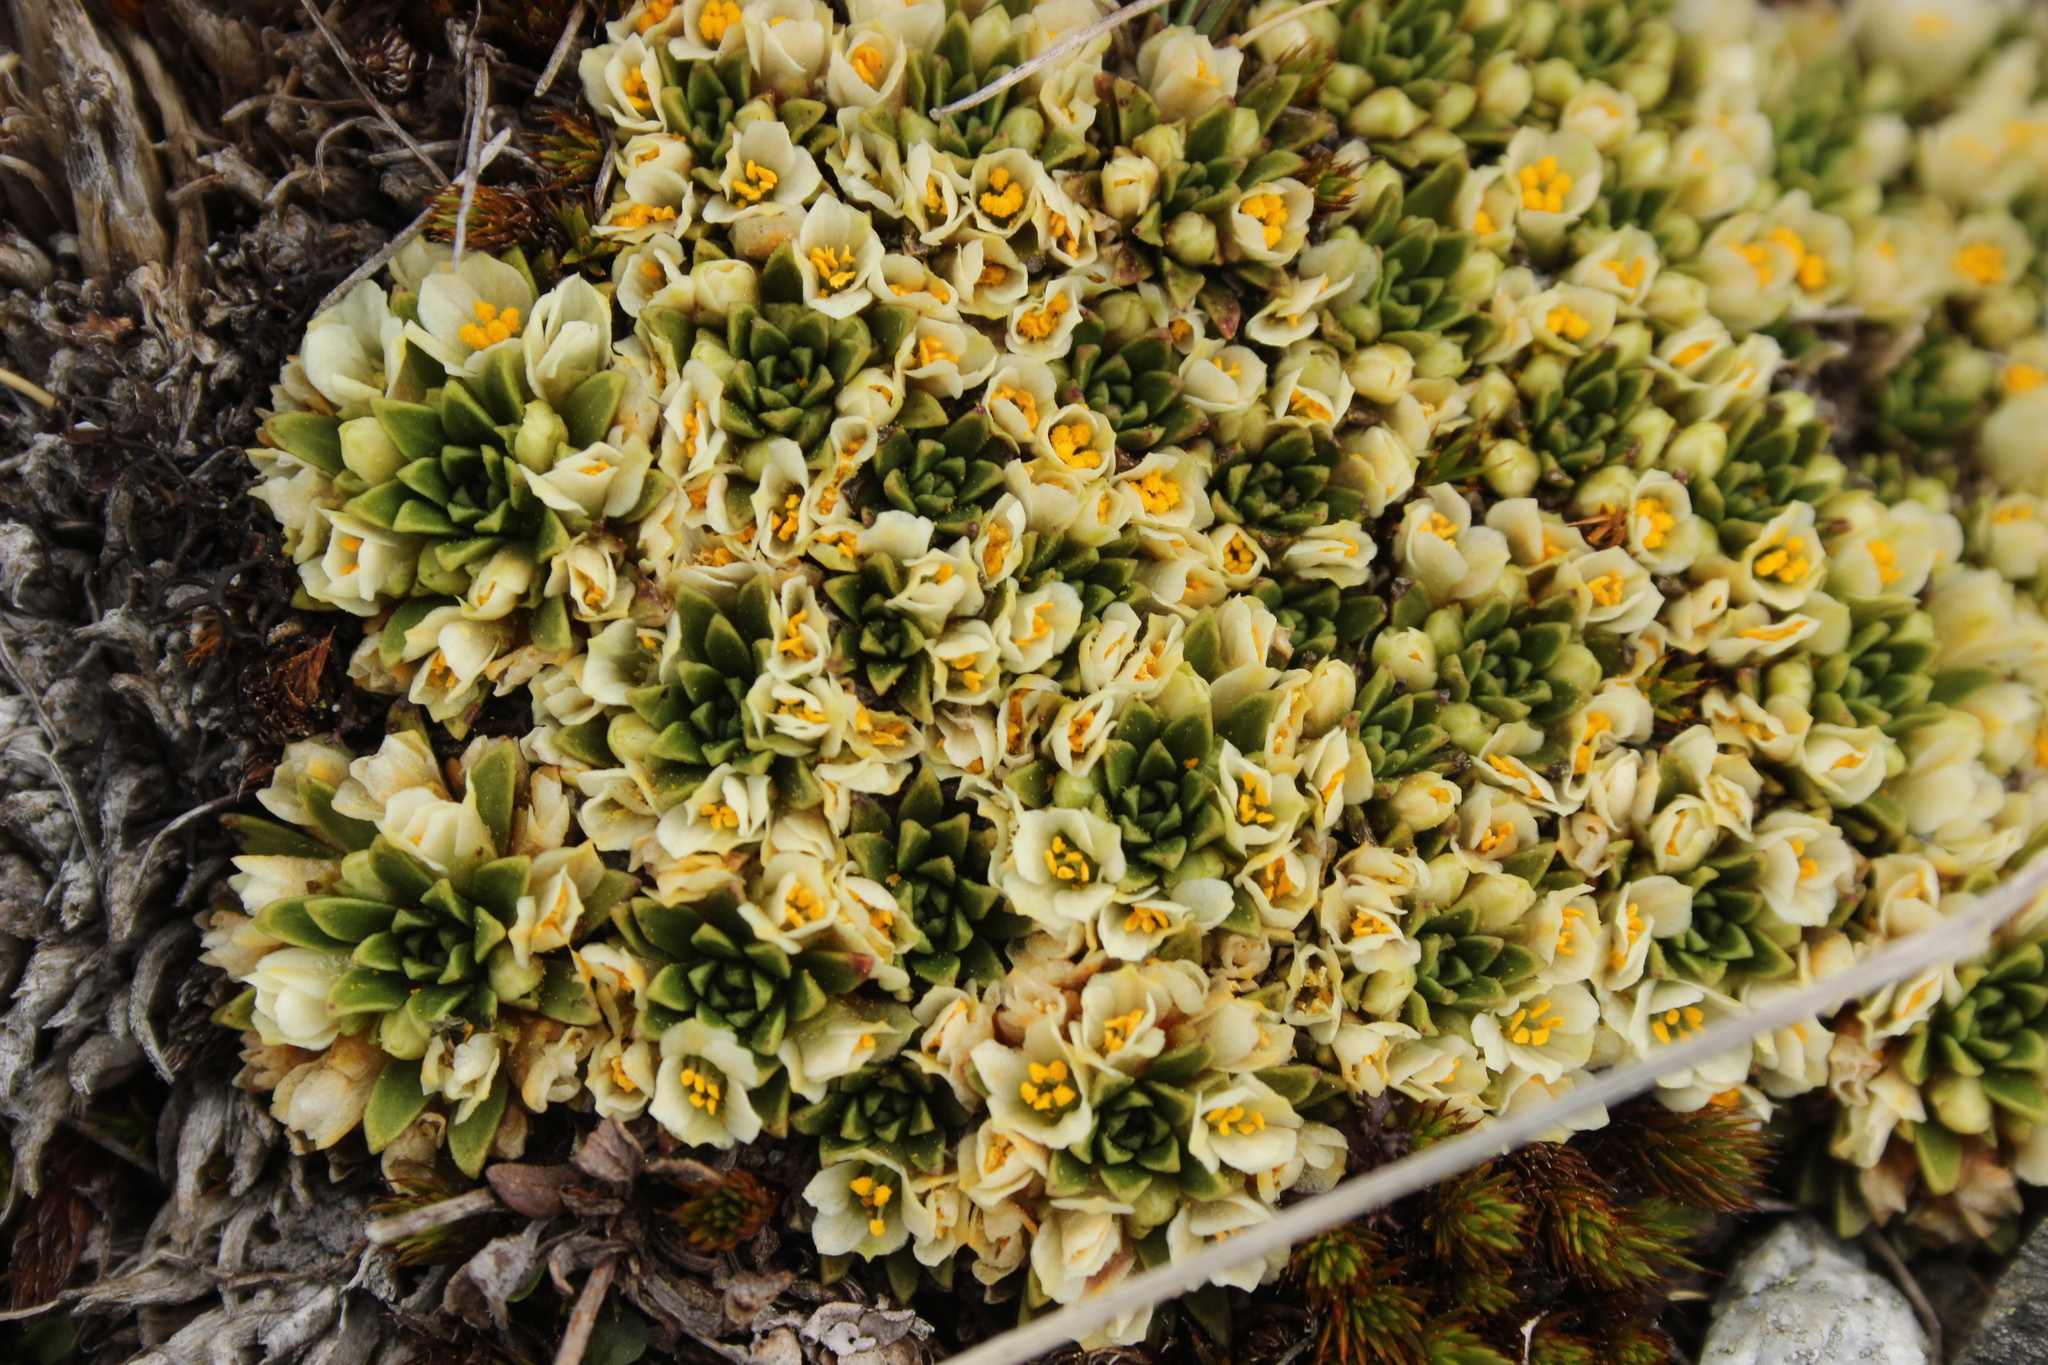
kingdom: Plantae
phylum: Tracheophyta
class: Magnoliopsida
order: Caryophyllales
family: Montiaceae
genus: Hectorella
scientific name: Hectorella caespitosa
